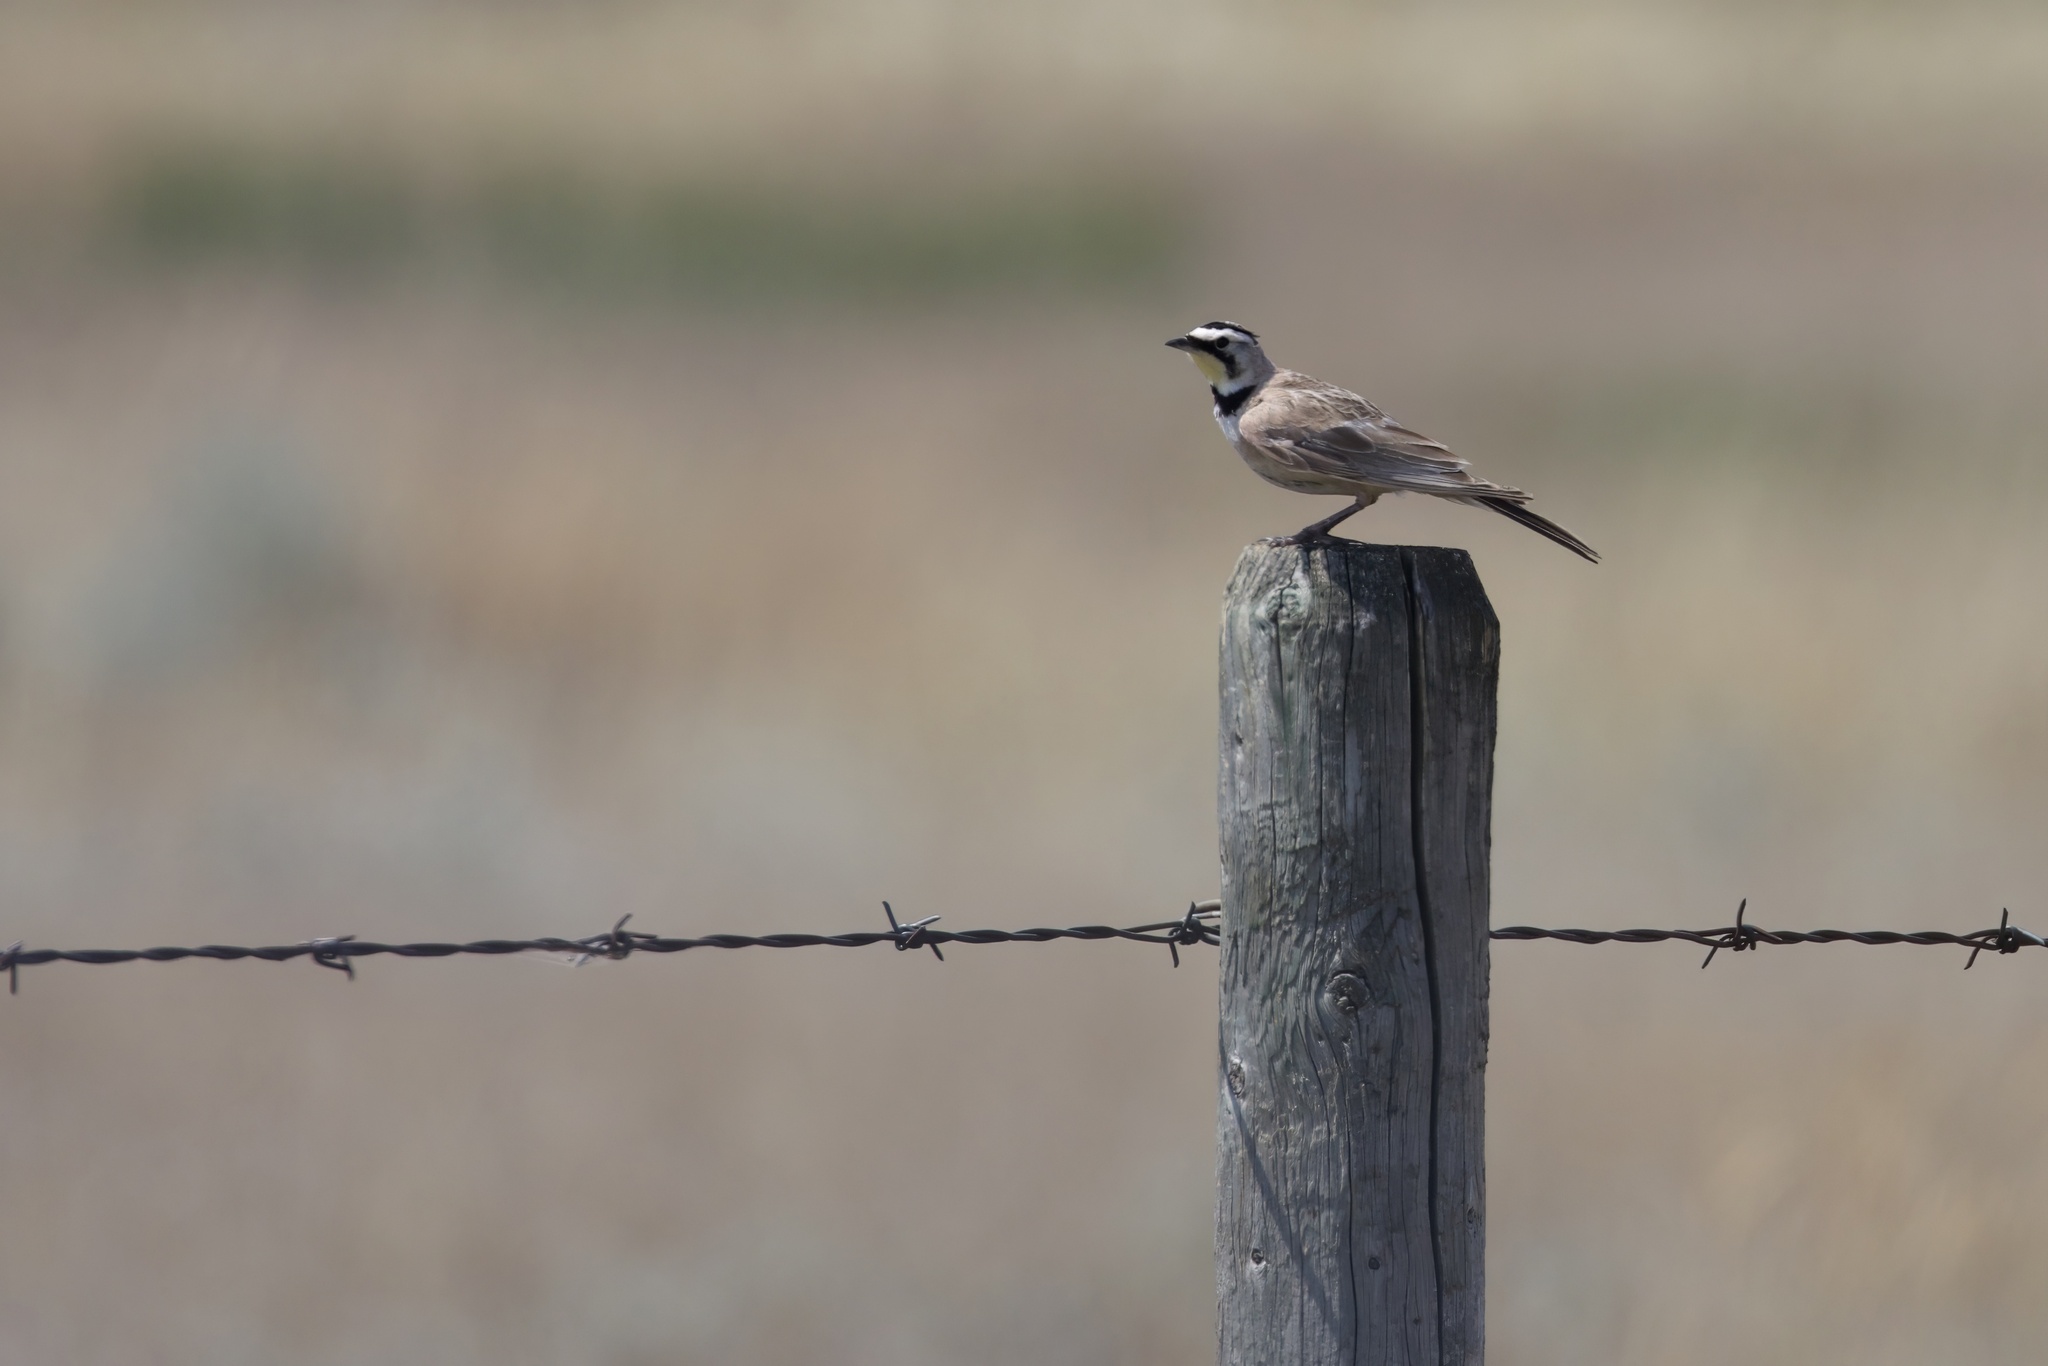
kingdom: Animalia
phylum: Chordata
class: Aves
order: Passeriformes
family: Alaudidae
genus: Eremophila
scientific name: Eremophila alpestris
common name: Horned lark
